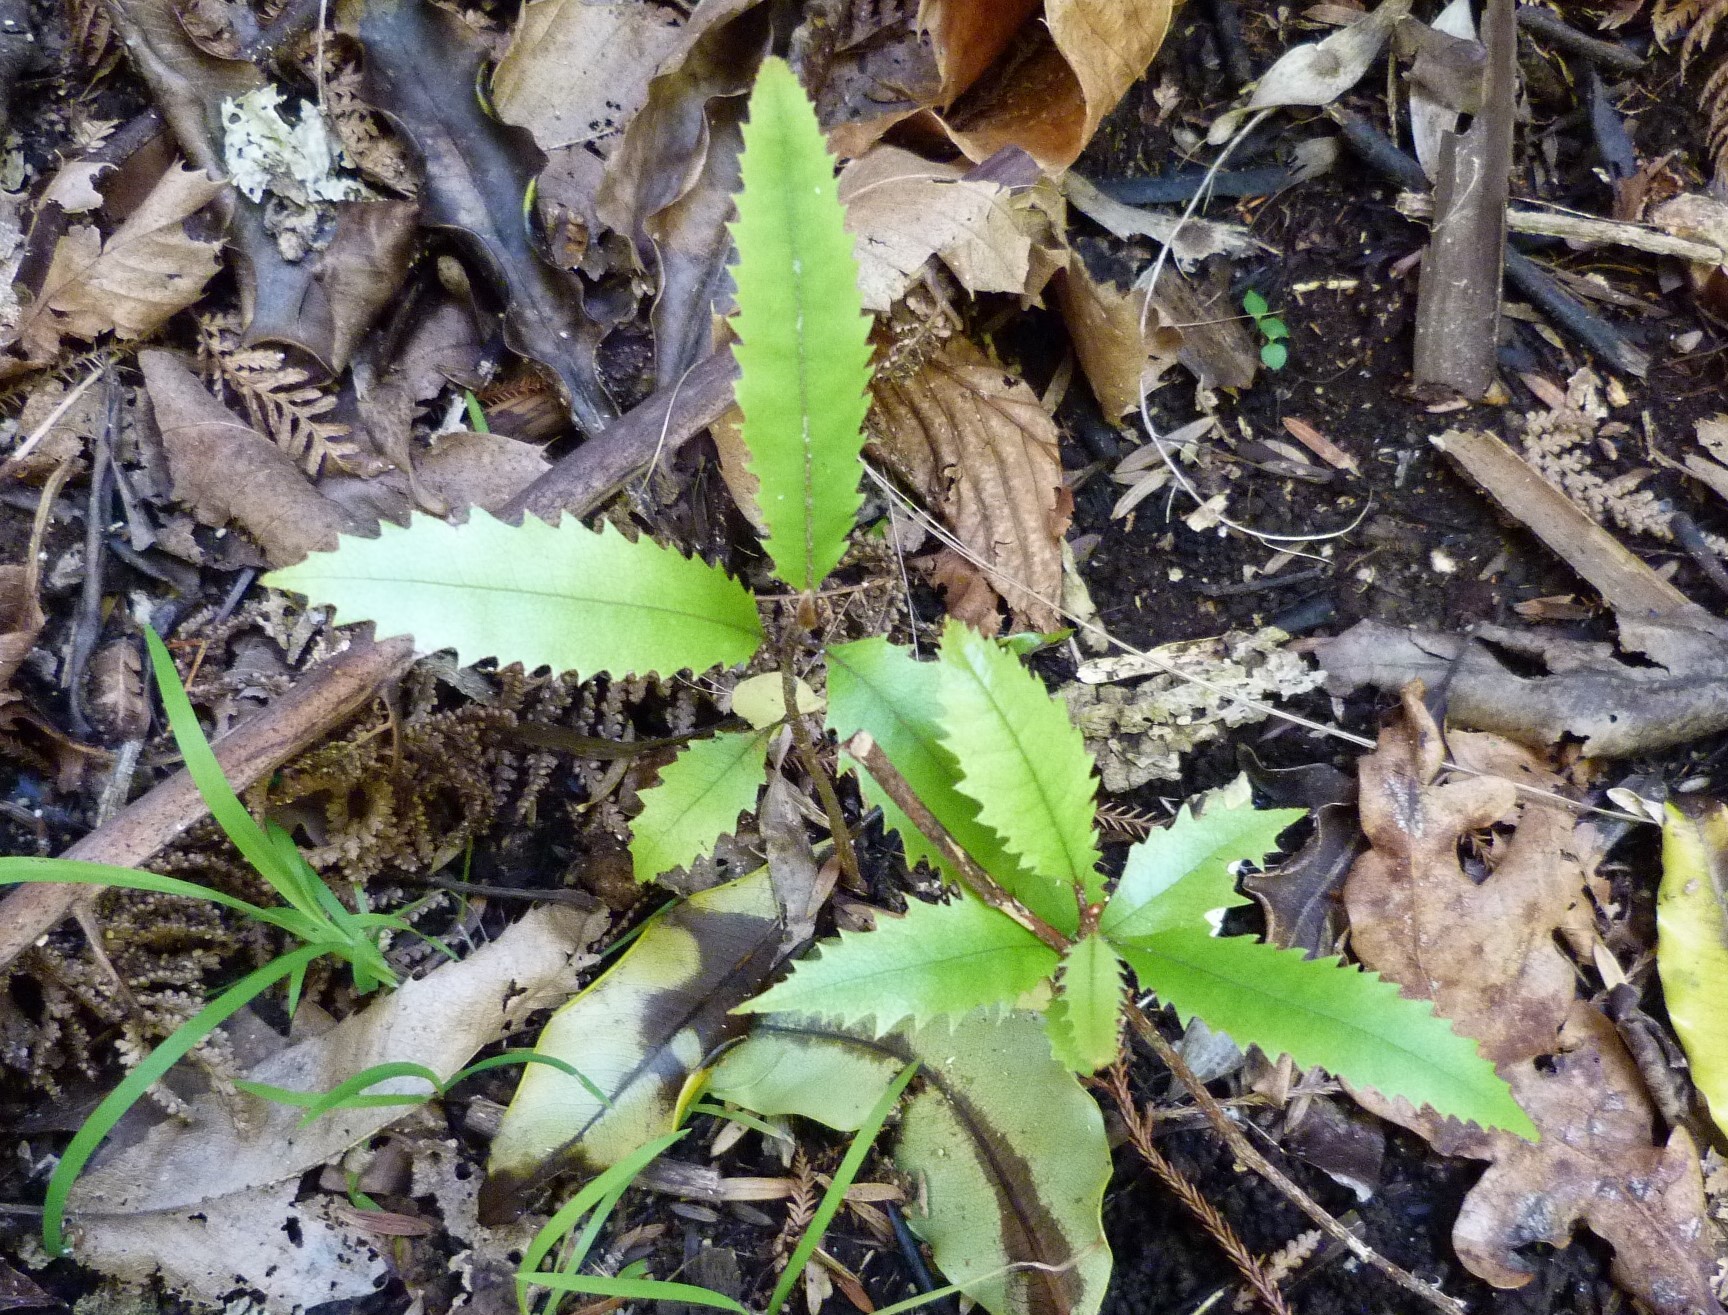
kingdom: Plantae
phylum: Tracheophyta
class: Magnoliopsida
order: Proteales
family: Proteaceae
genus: Knightia
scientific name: Knightia excelsa
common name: New zealand-honeysuckle
